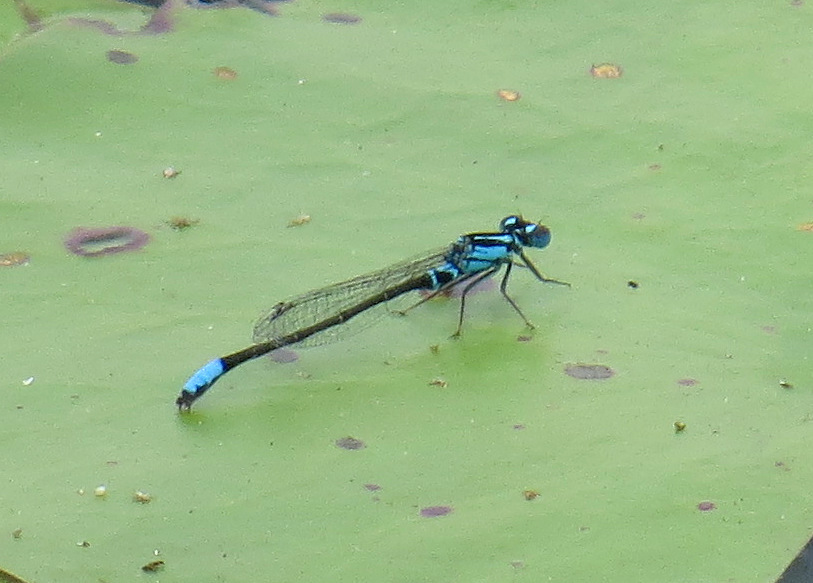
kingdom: Animalia
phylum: Arthropoda
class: Insecta
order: Odonata
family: Coenagrionidae
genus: Ischnura
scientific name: Ischnura kellicotti
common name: Lilypad forktail
